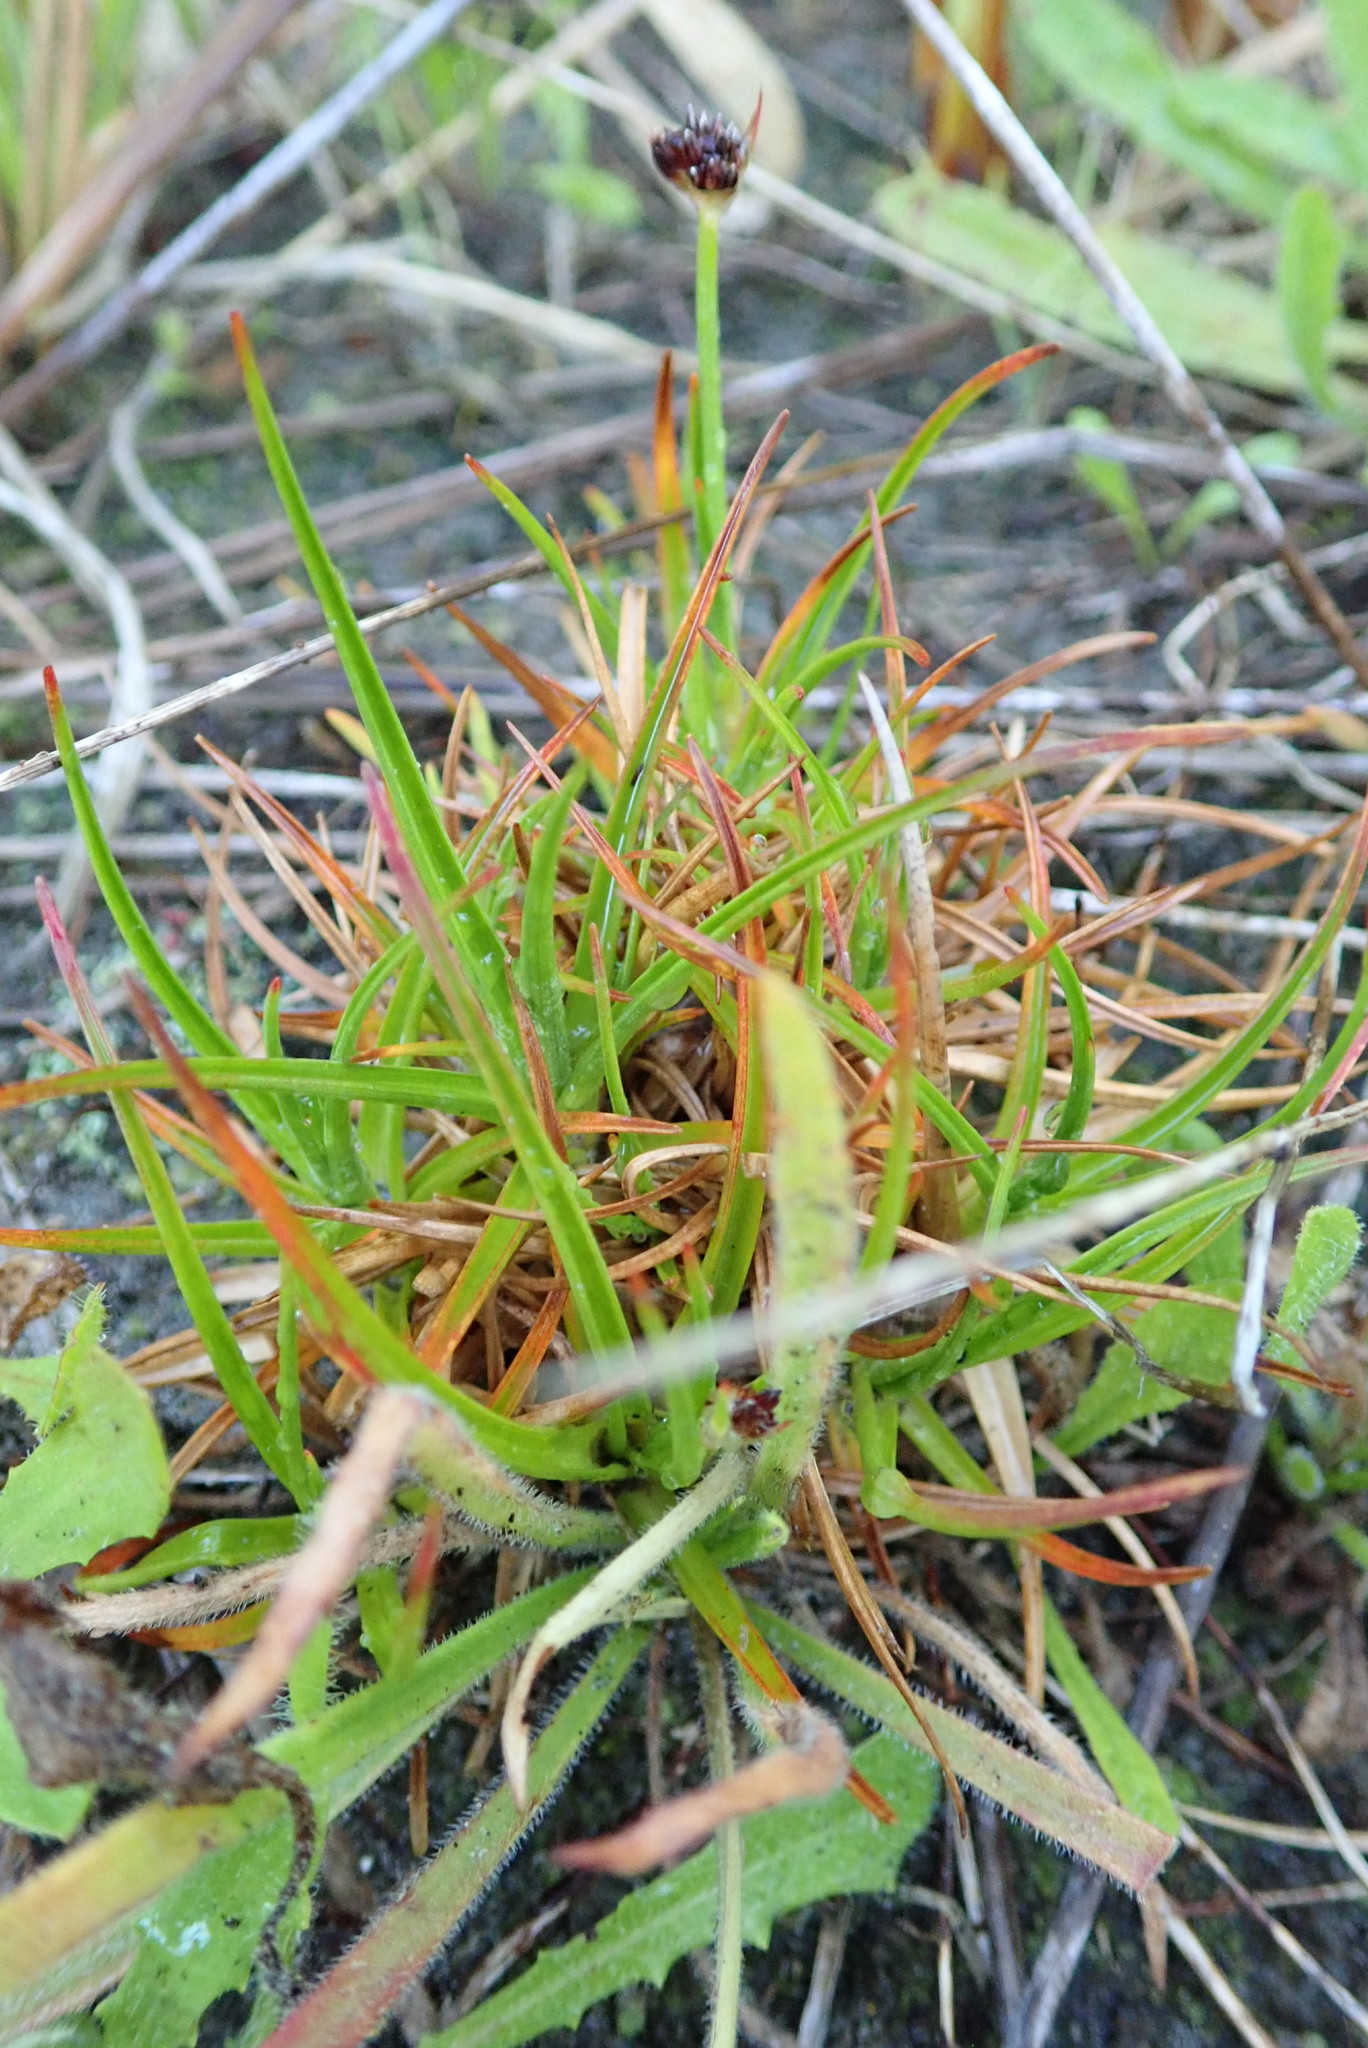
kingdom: Plantae
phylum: Tracheophyta
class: Liliopsida
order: Poales
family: Juncaceae
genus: Juncus
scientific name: Juncus caespiticius
